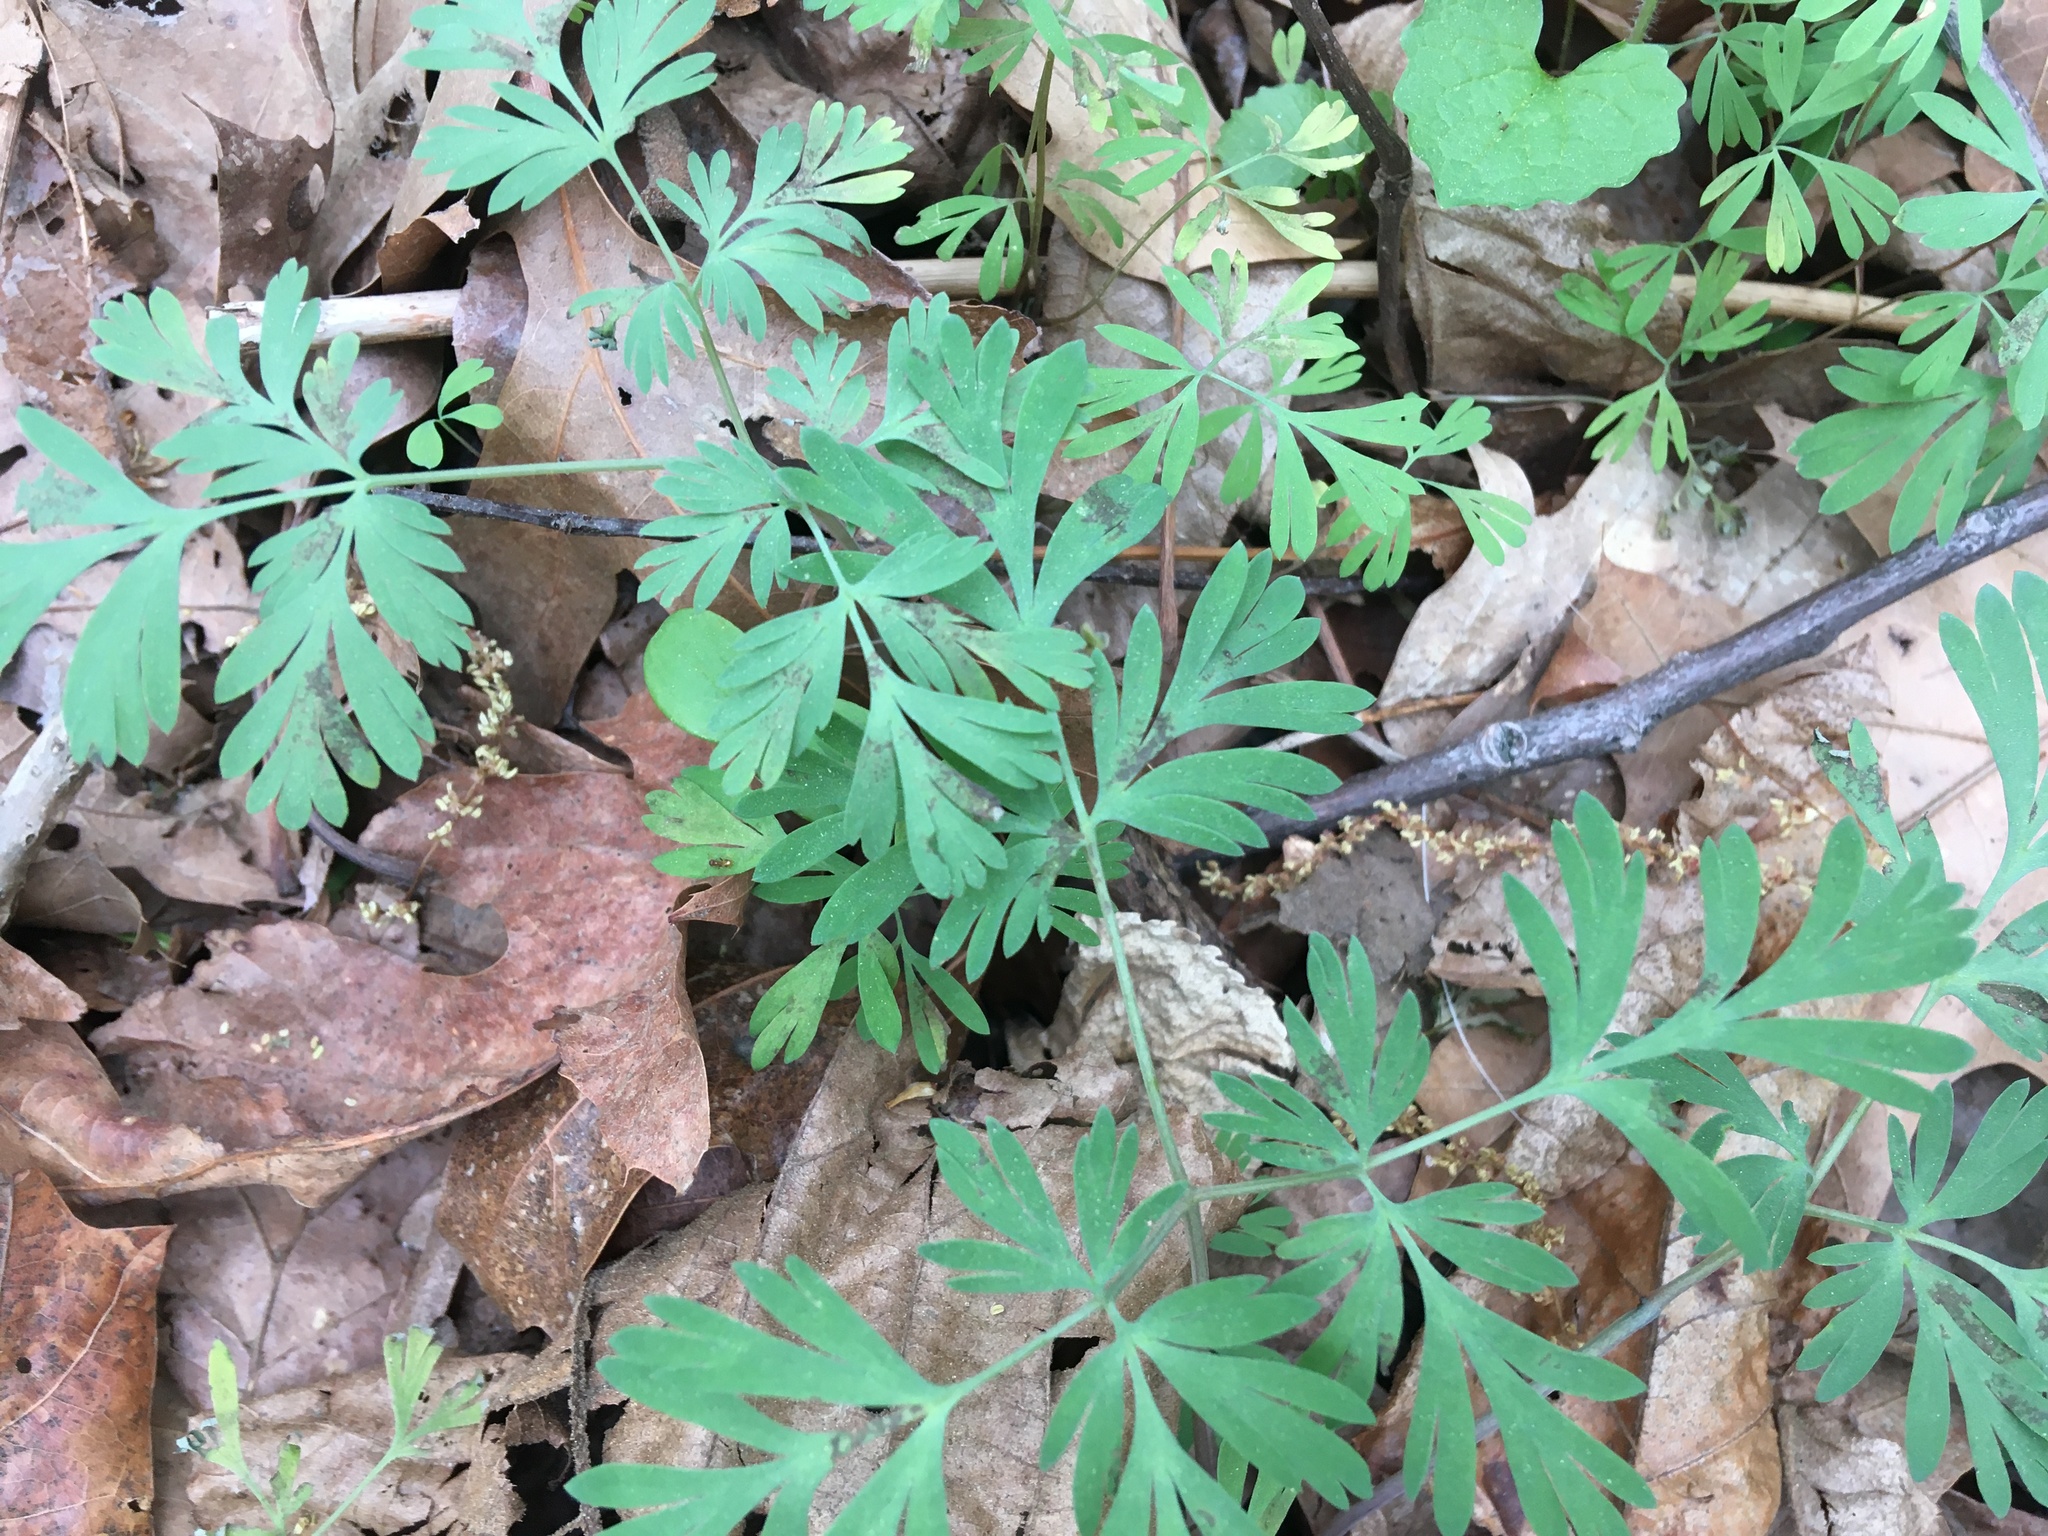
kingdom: Plantae
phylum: Tracheophyta
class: Magnoliopsida
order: Ranunculales
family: Papaveraceae
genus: Dicentra
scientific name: Dicentra cucullaria
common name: Dutchman's breeches
